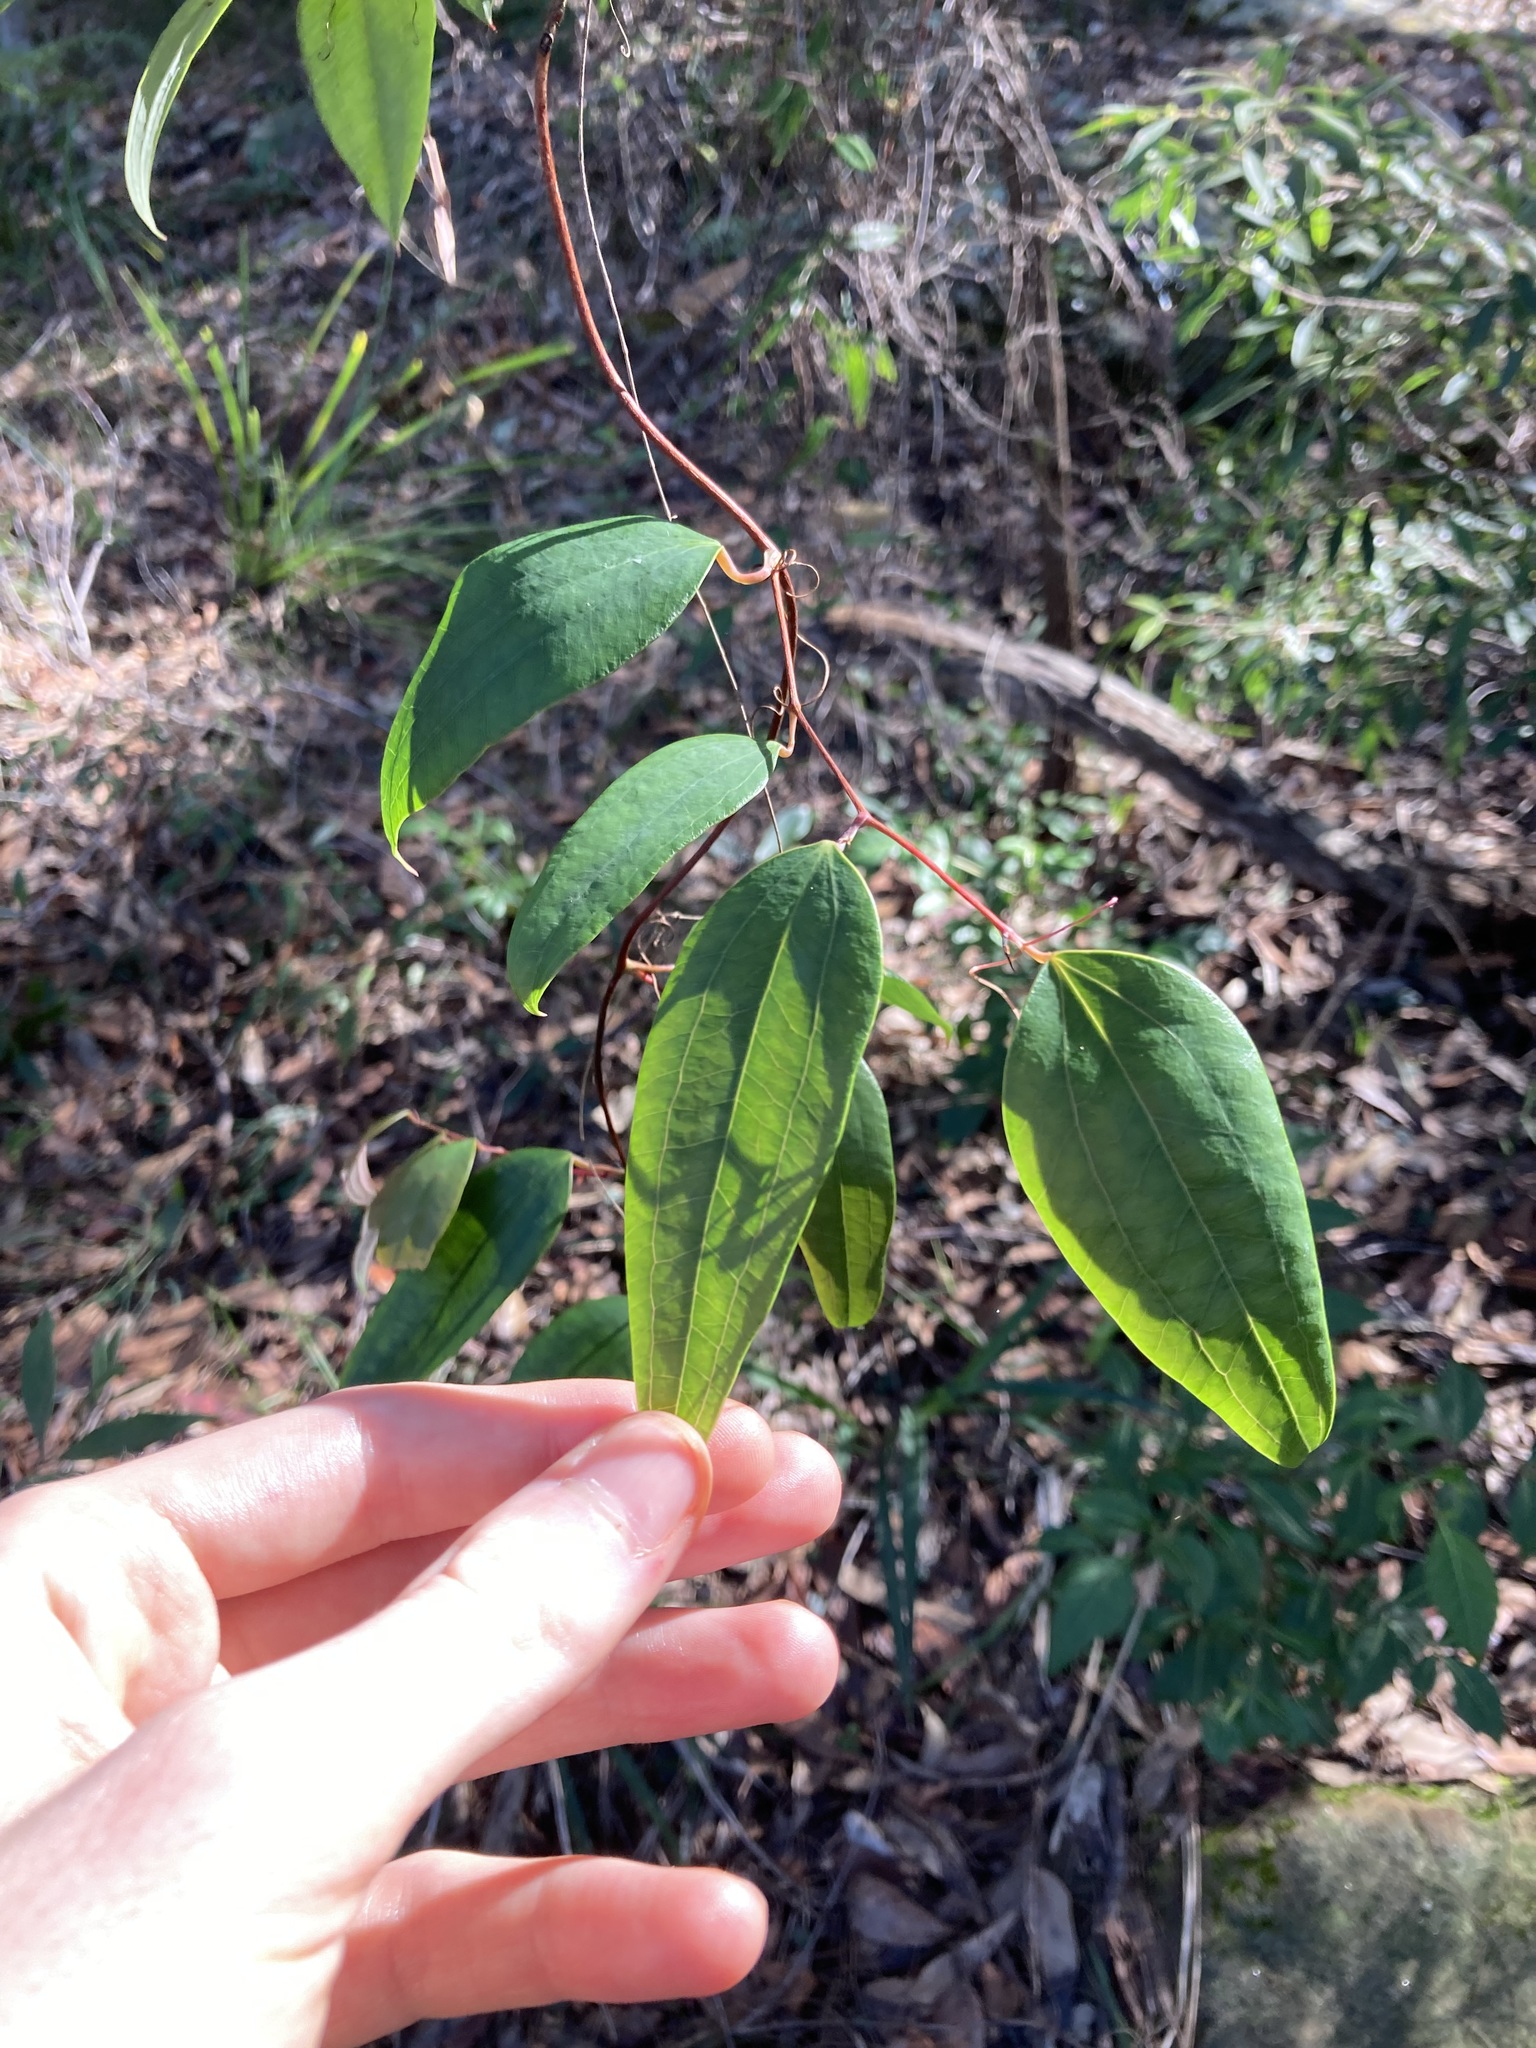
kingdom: Plantae
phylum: Tracheophyta
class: Liliopsida
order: Liliales
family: Smilacaceae
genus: Smilax
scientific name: Smilax glyciphylla
